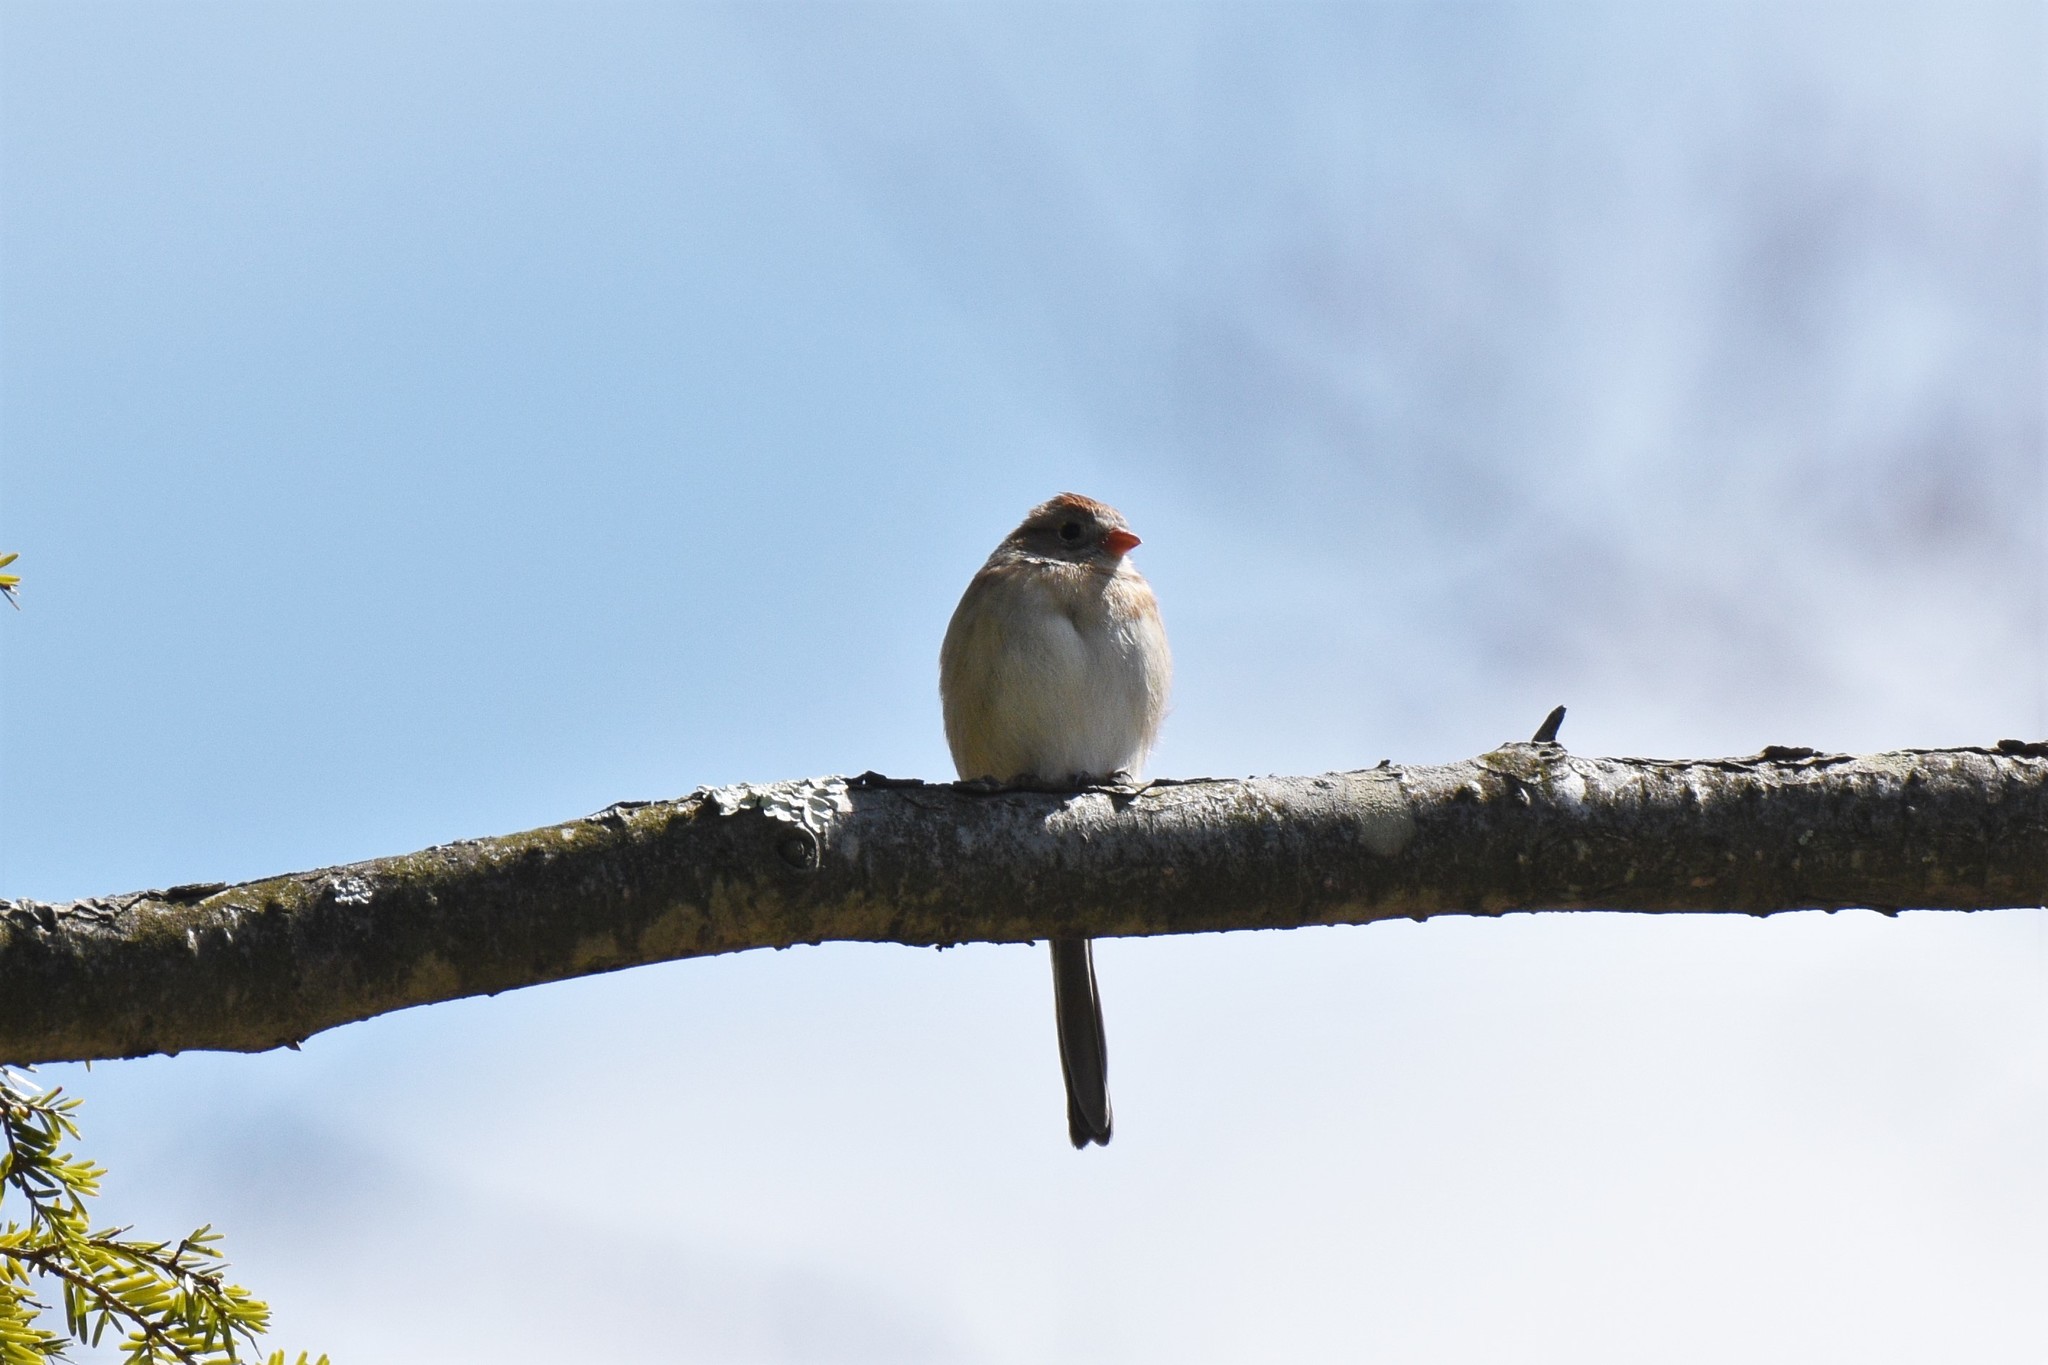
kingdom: Animalia
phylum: Chordata
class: Aves
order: Passeriformes
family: Passerellidae
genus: Spizella
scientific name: Spizella pusilla
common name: Field sparrow
